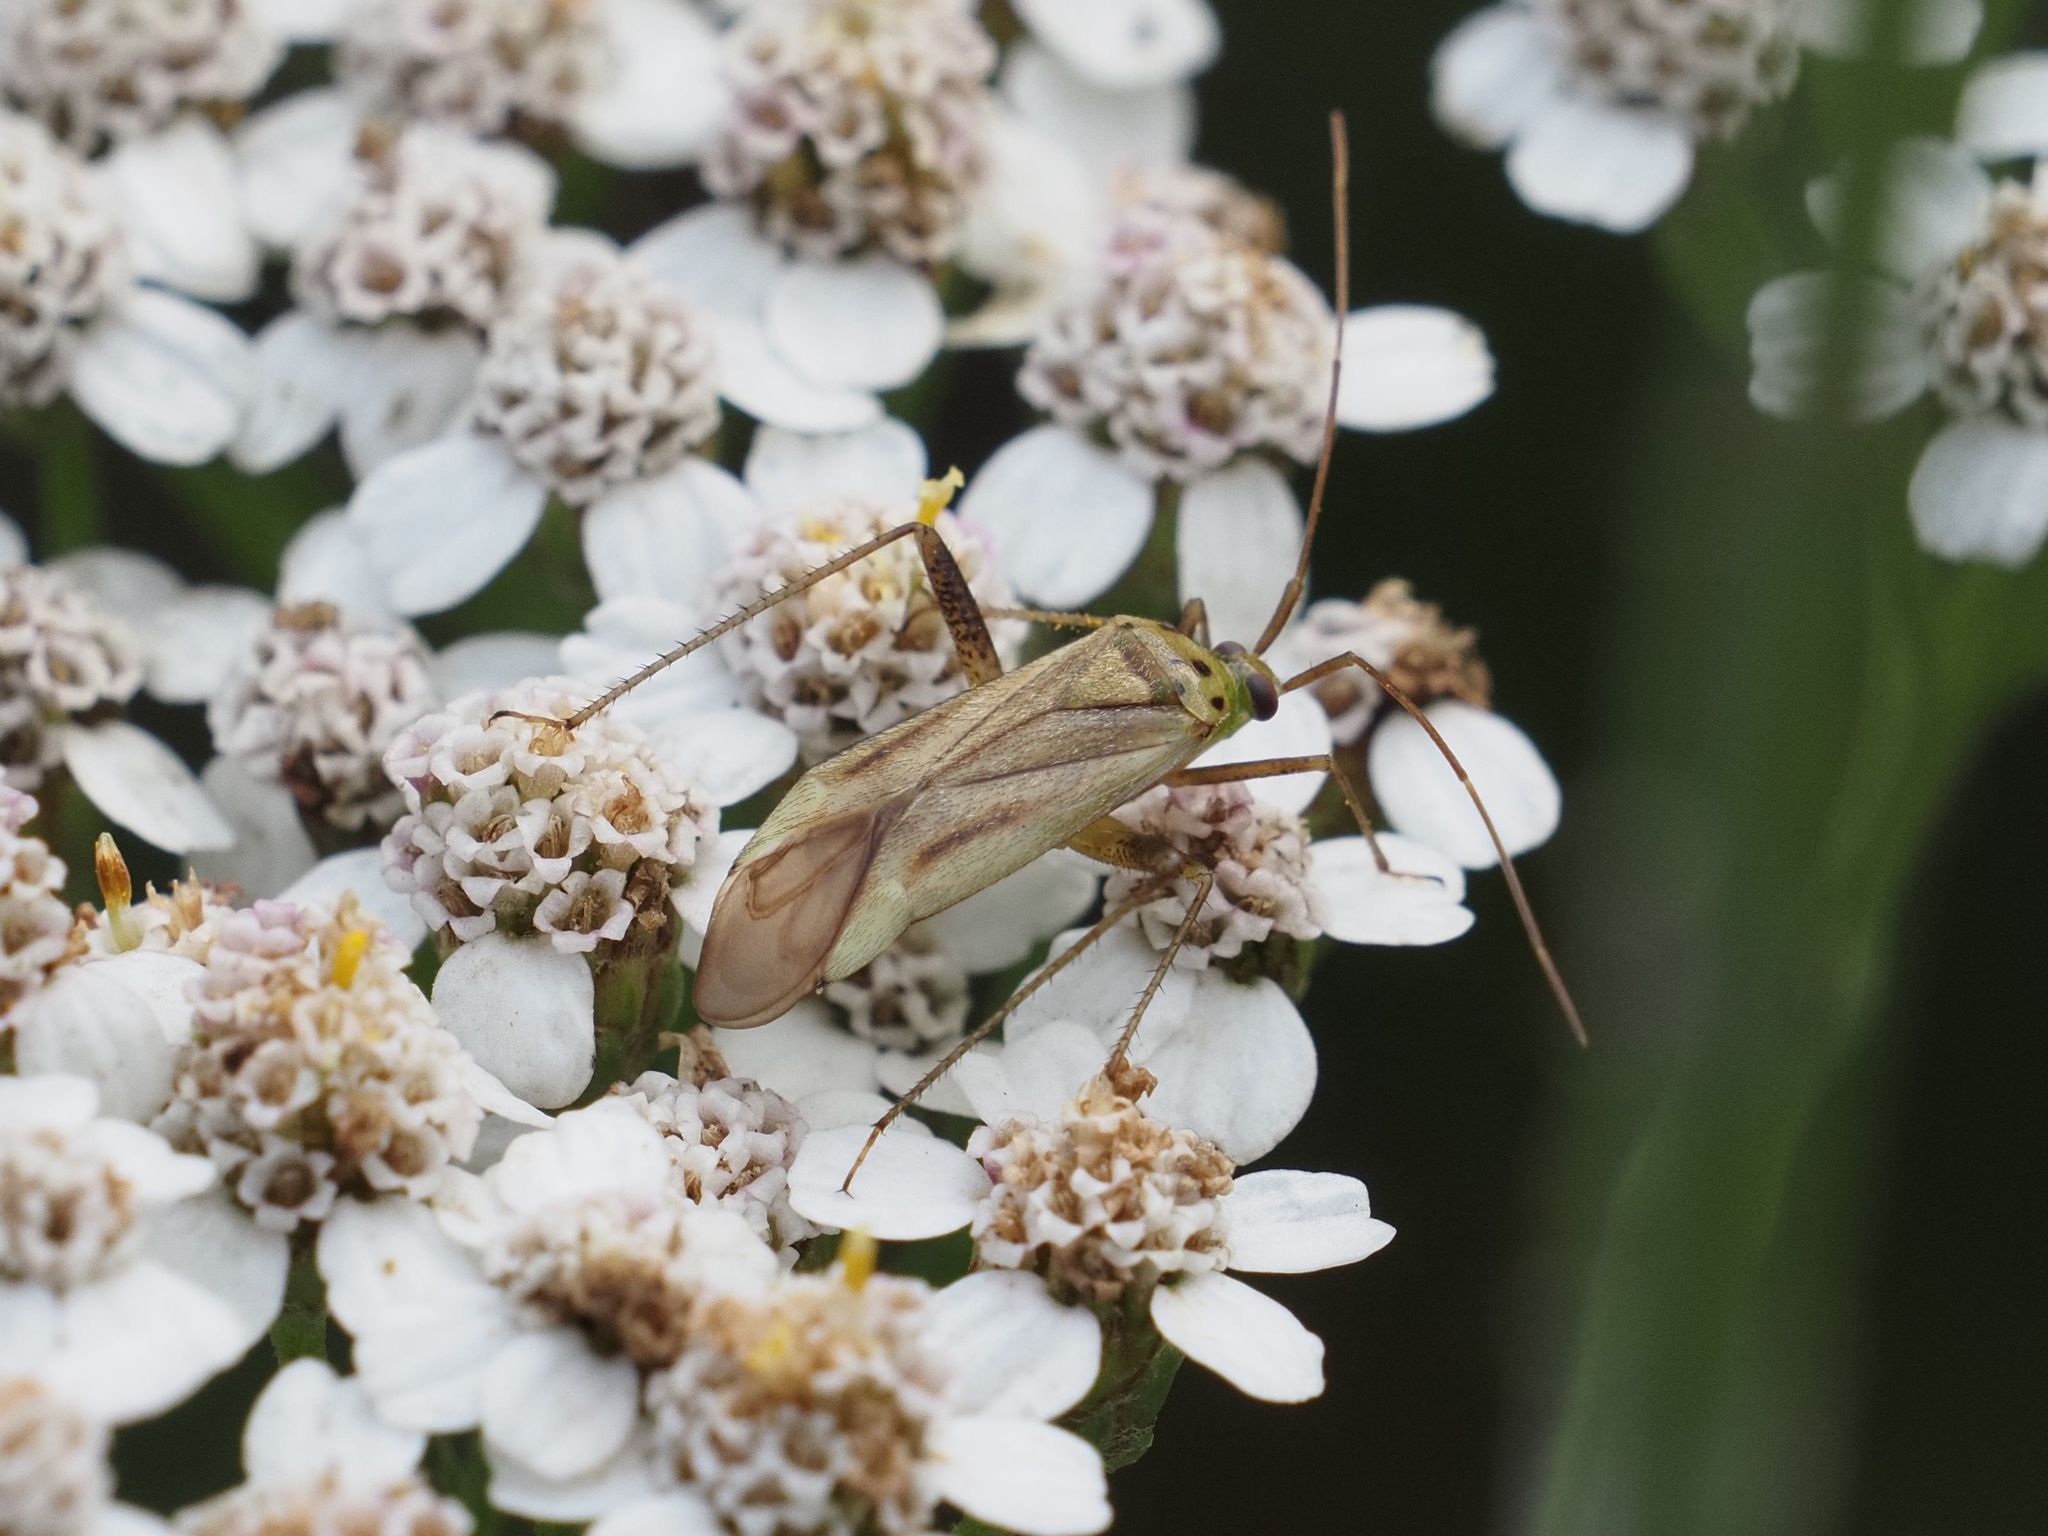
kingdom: Animalia
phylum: Arthropoda
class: Insecta
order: Hemiptera
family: Miridae
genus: Adelphocoris
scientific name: Adelphocoris quadripunctatus
